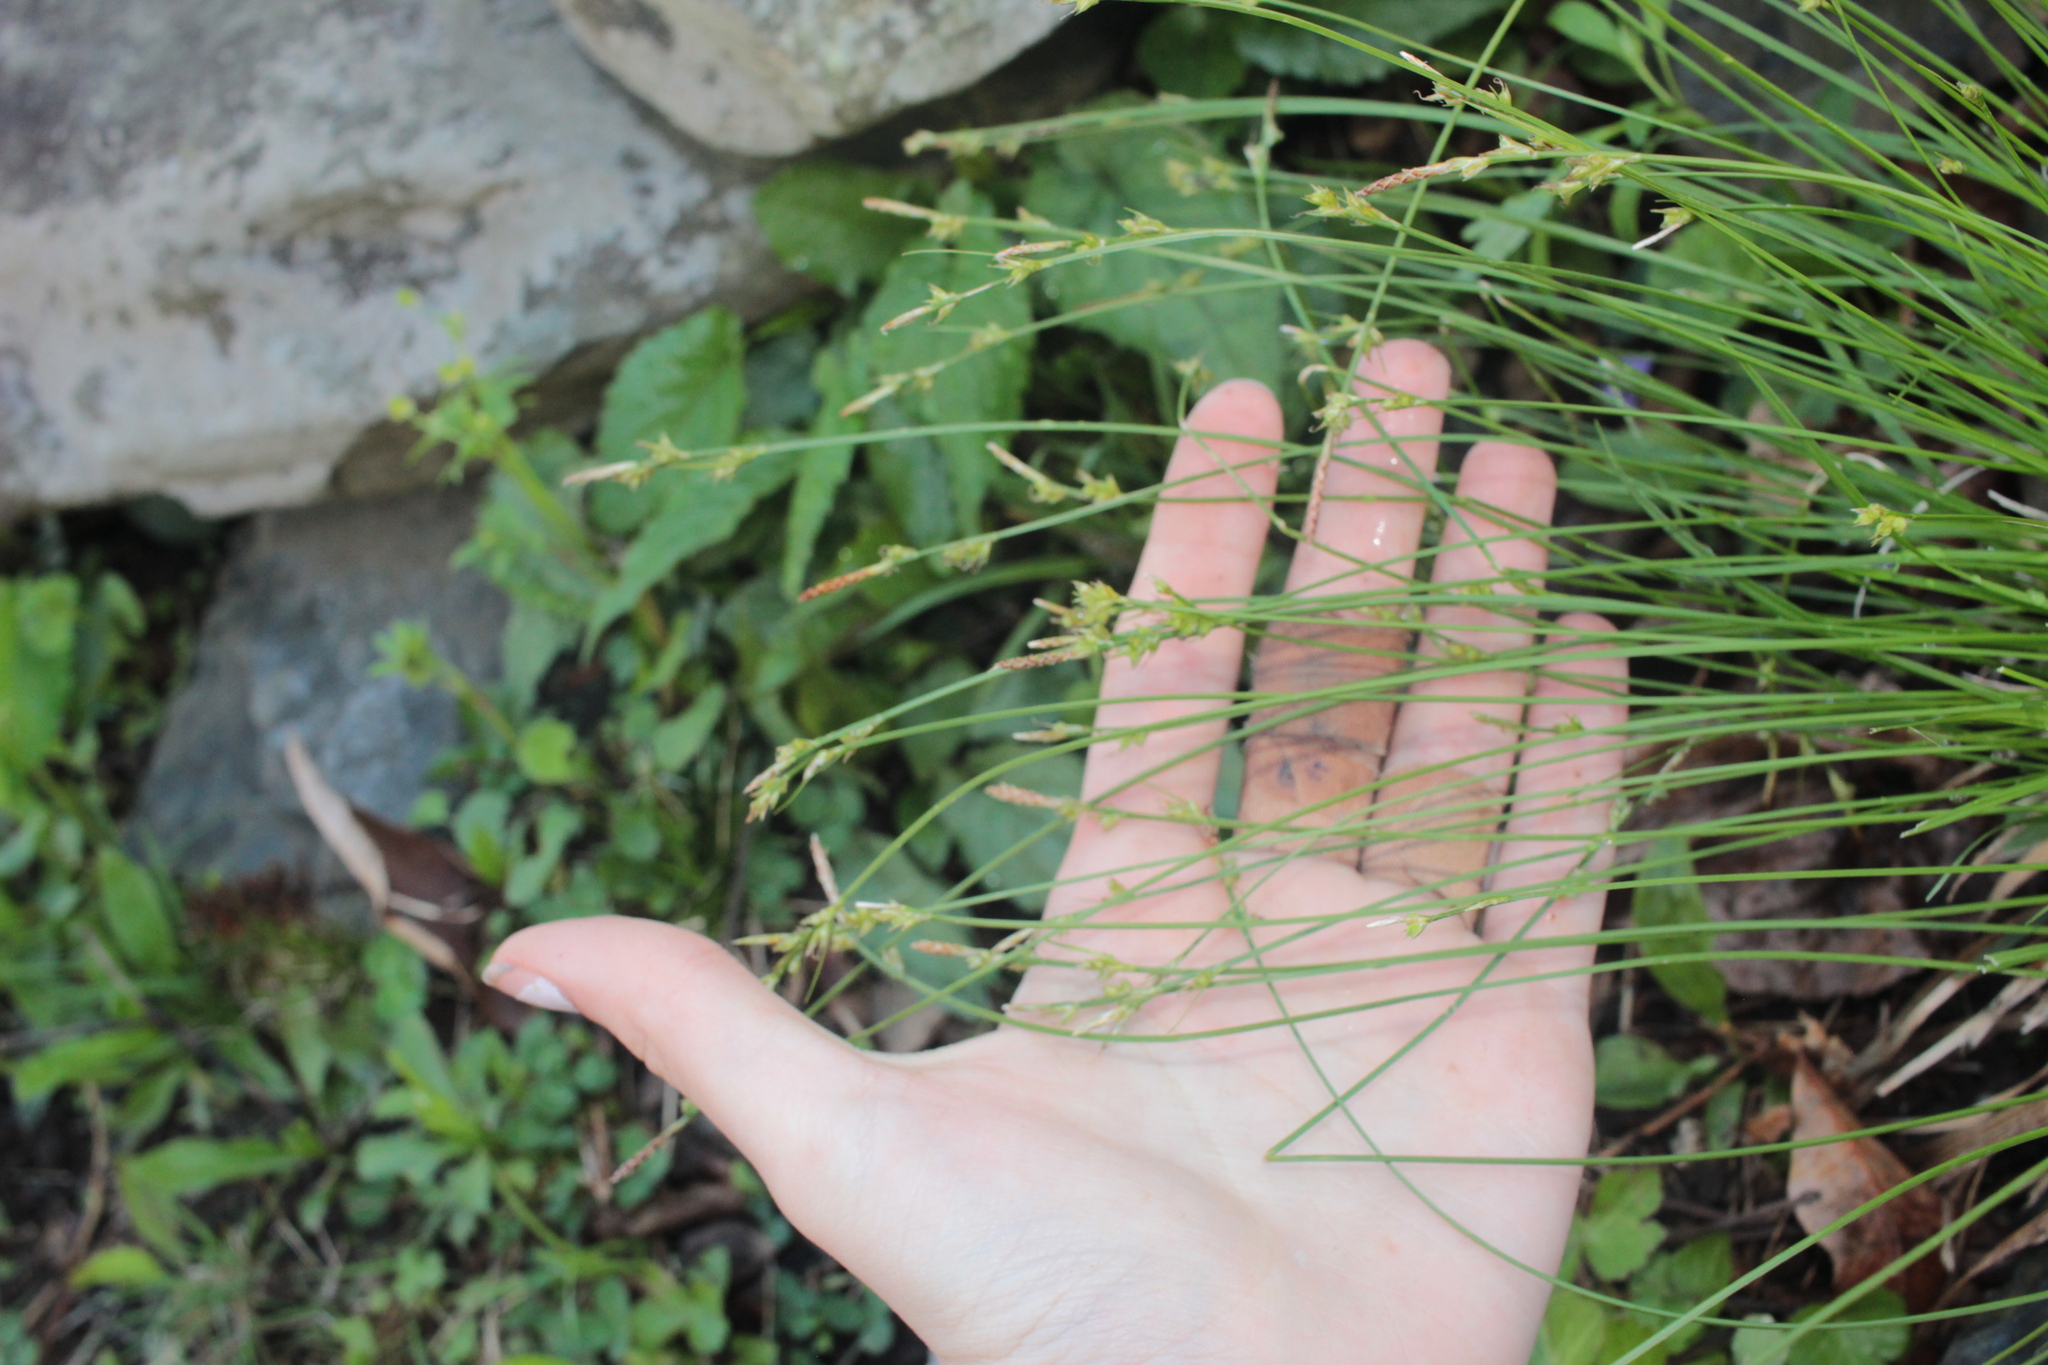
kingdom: Plantae
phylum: Tracheophyta
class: Liliopsida
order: Poales
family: Cyperaceae
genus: Carex
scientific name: Carex albicans
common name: Bellow-beaked sedge
